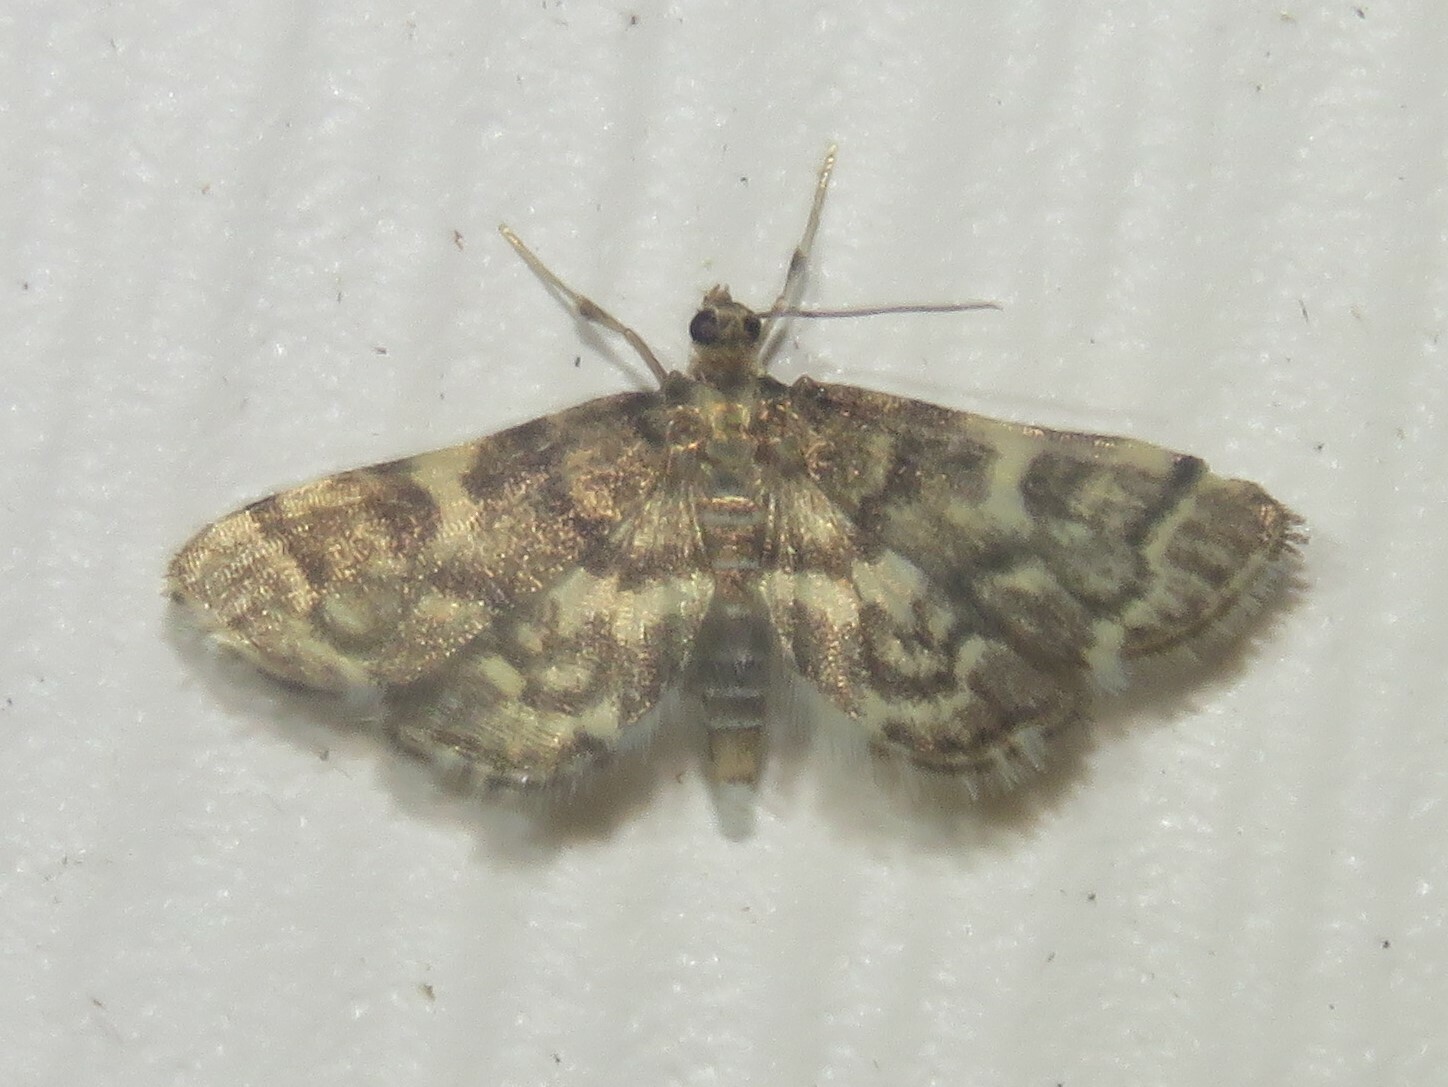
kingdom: Animalia
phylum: Arthropoda
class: Insecta
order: Lepidoptera
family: Crambidae
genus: Anageshna
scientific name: Anageshna primordialis
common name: Yellow-spotted webworm moth
